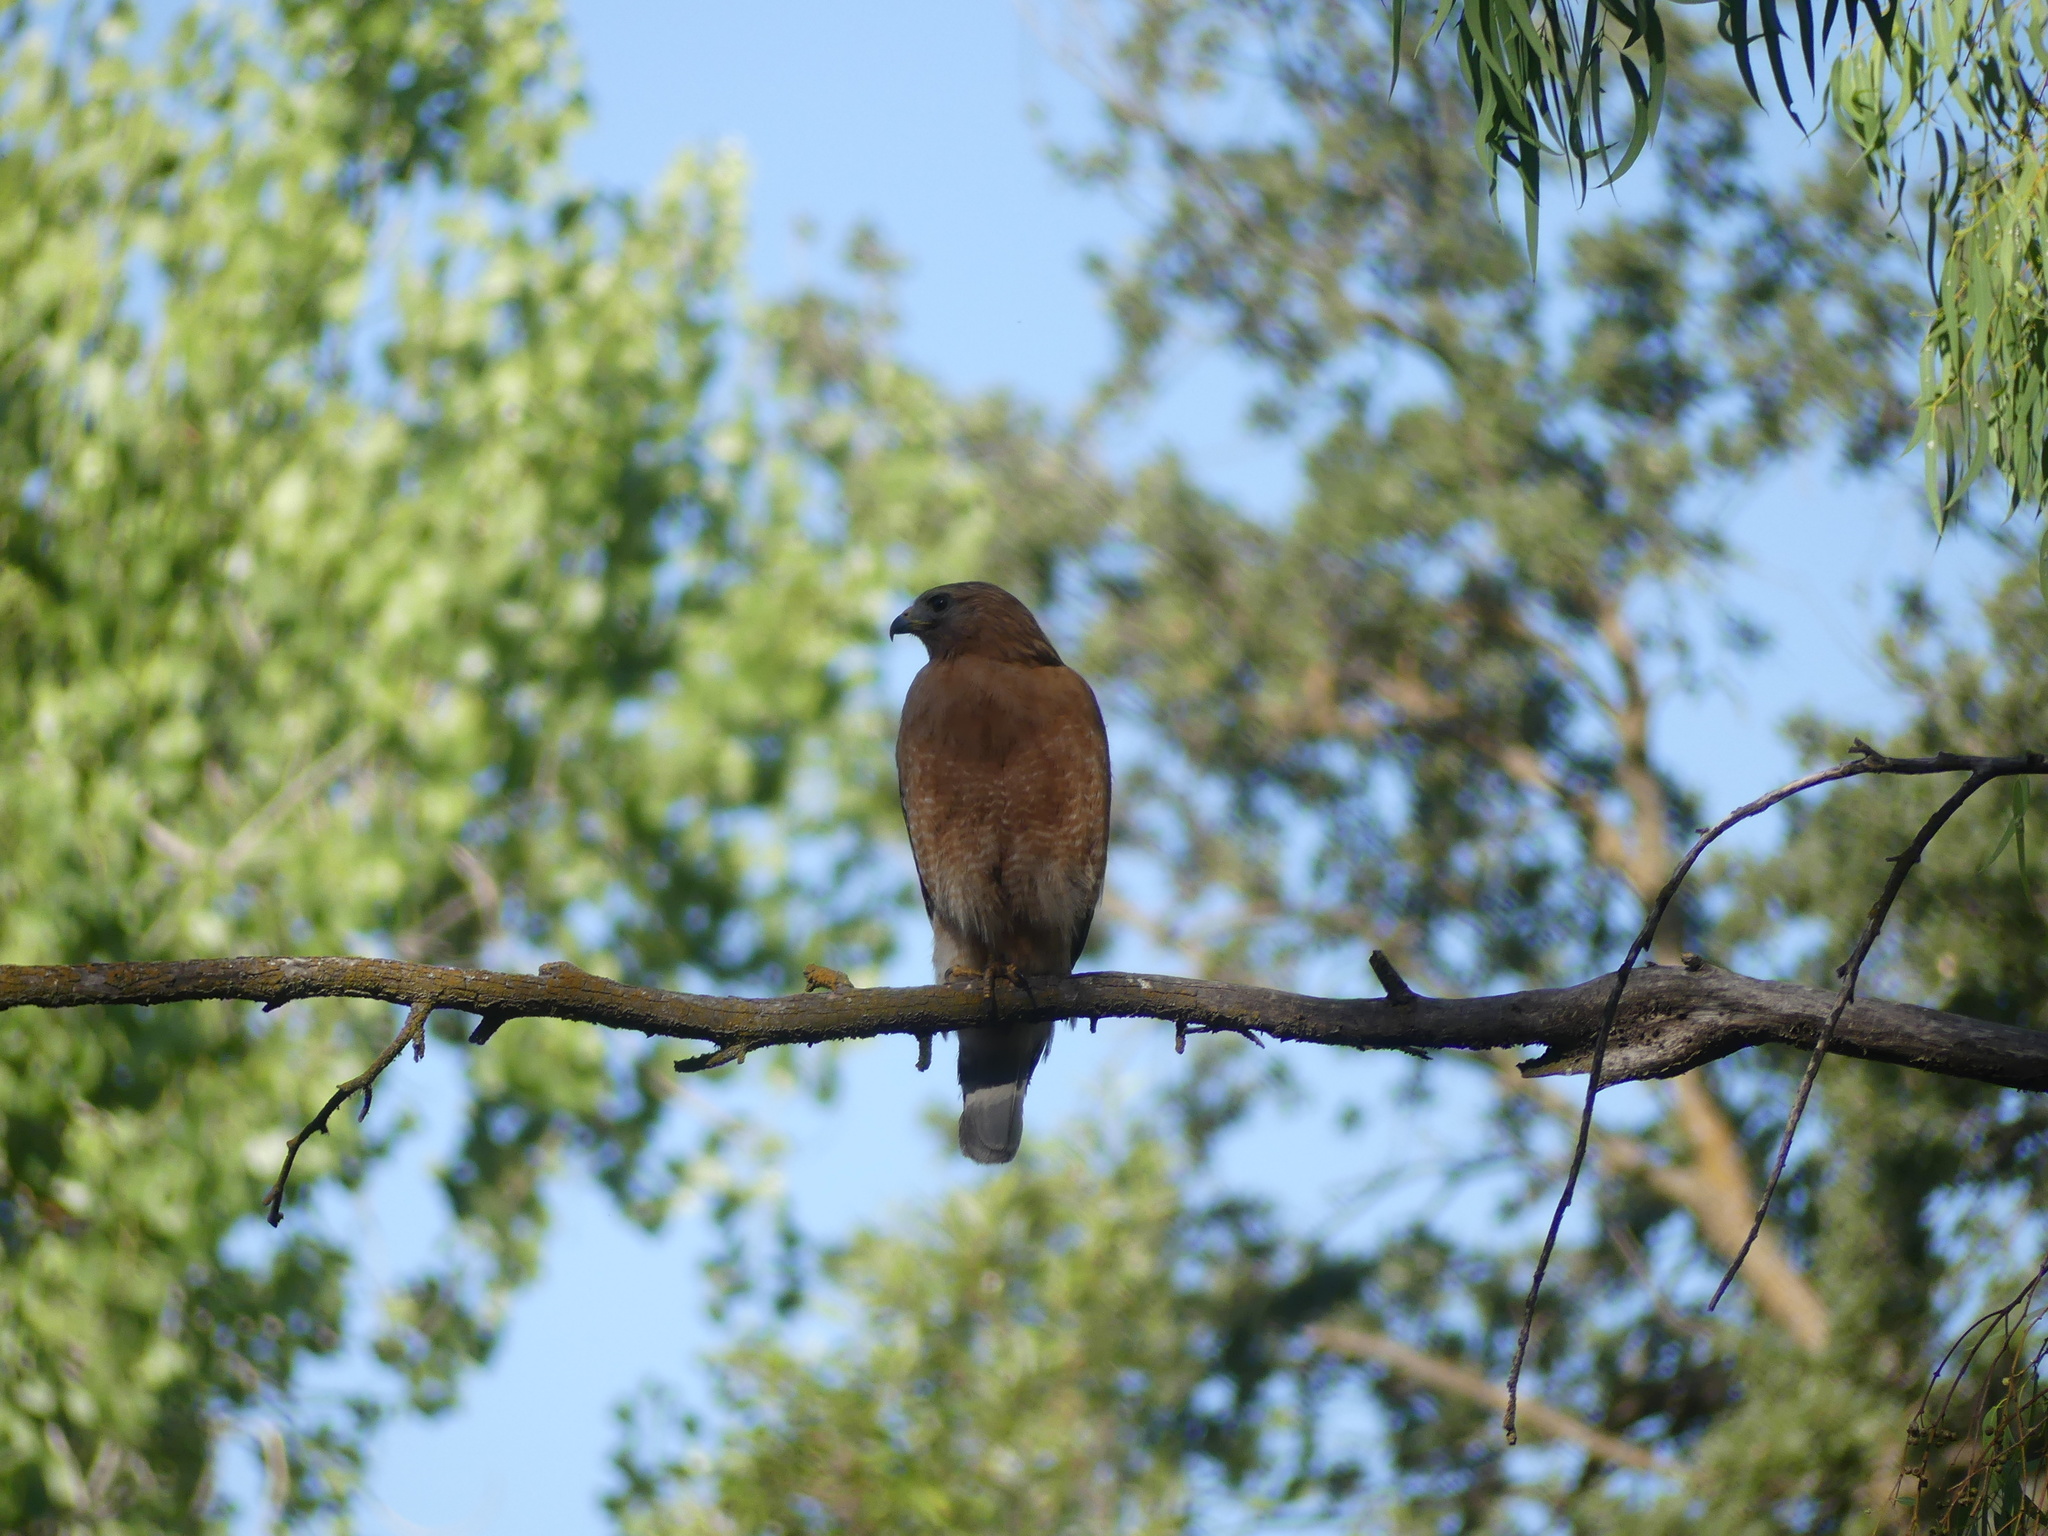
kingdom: Animalia
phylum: Chordata
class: Aves
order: Accipitriformes
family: Accipitridae
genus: Buteo
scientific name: Buteo lineatus
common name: Red-shouldered hawk
